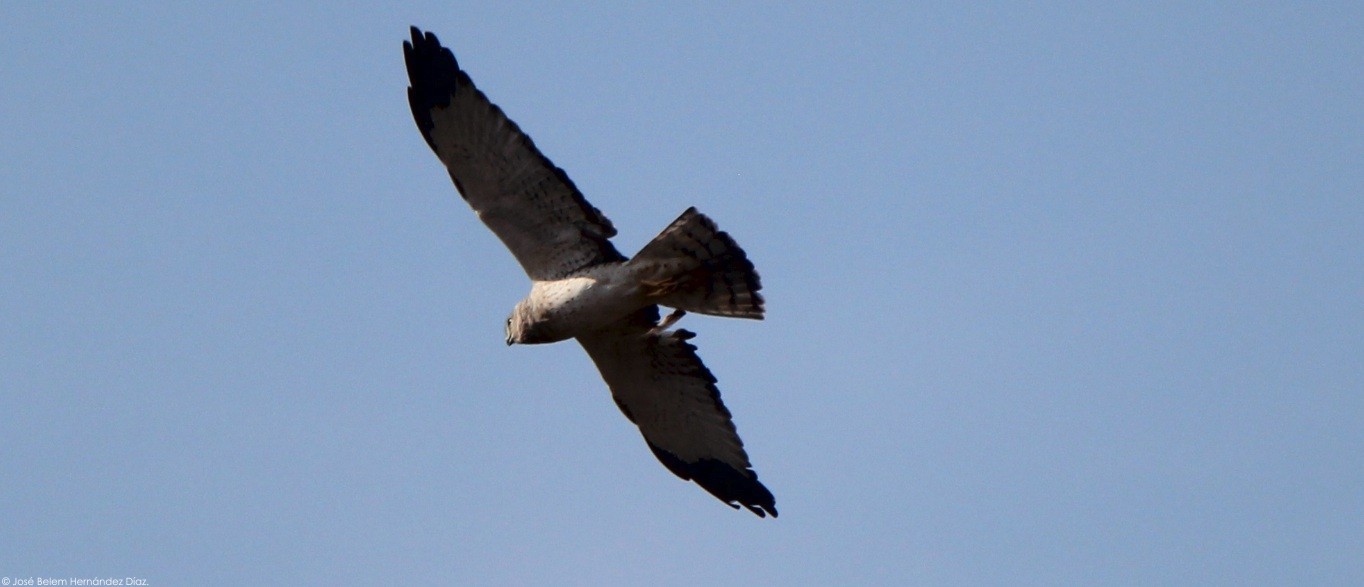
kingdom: Animalia
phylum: Chordata
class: Aves
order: Accipitriformes
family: Accipitridae
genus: Circus
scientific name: Circus cyaneus
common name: Hen harrier
